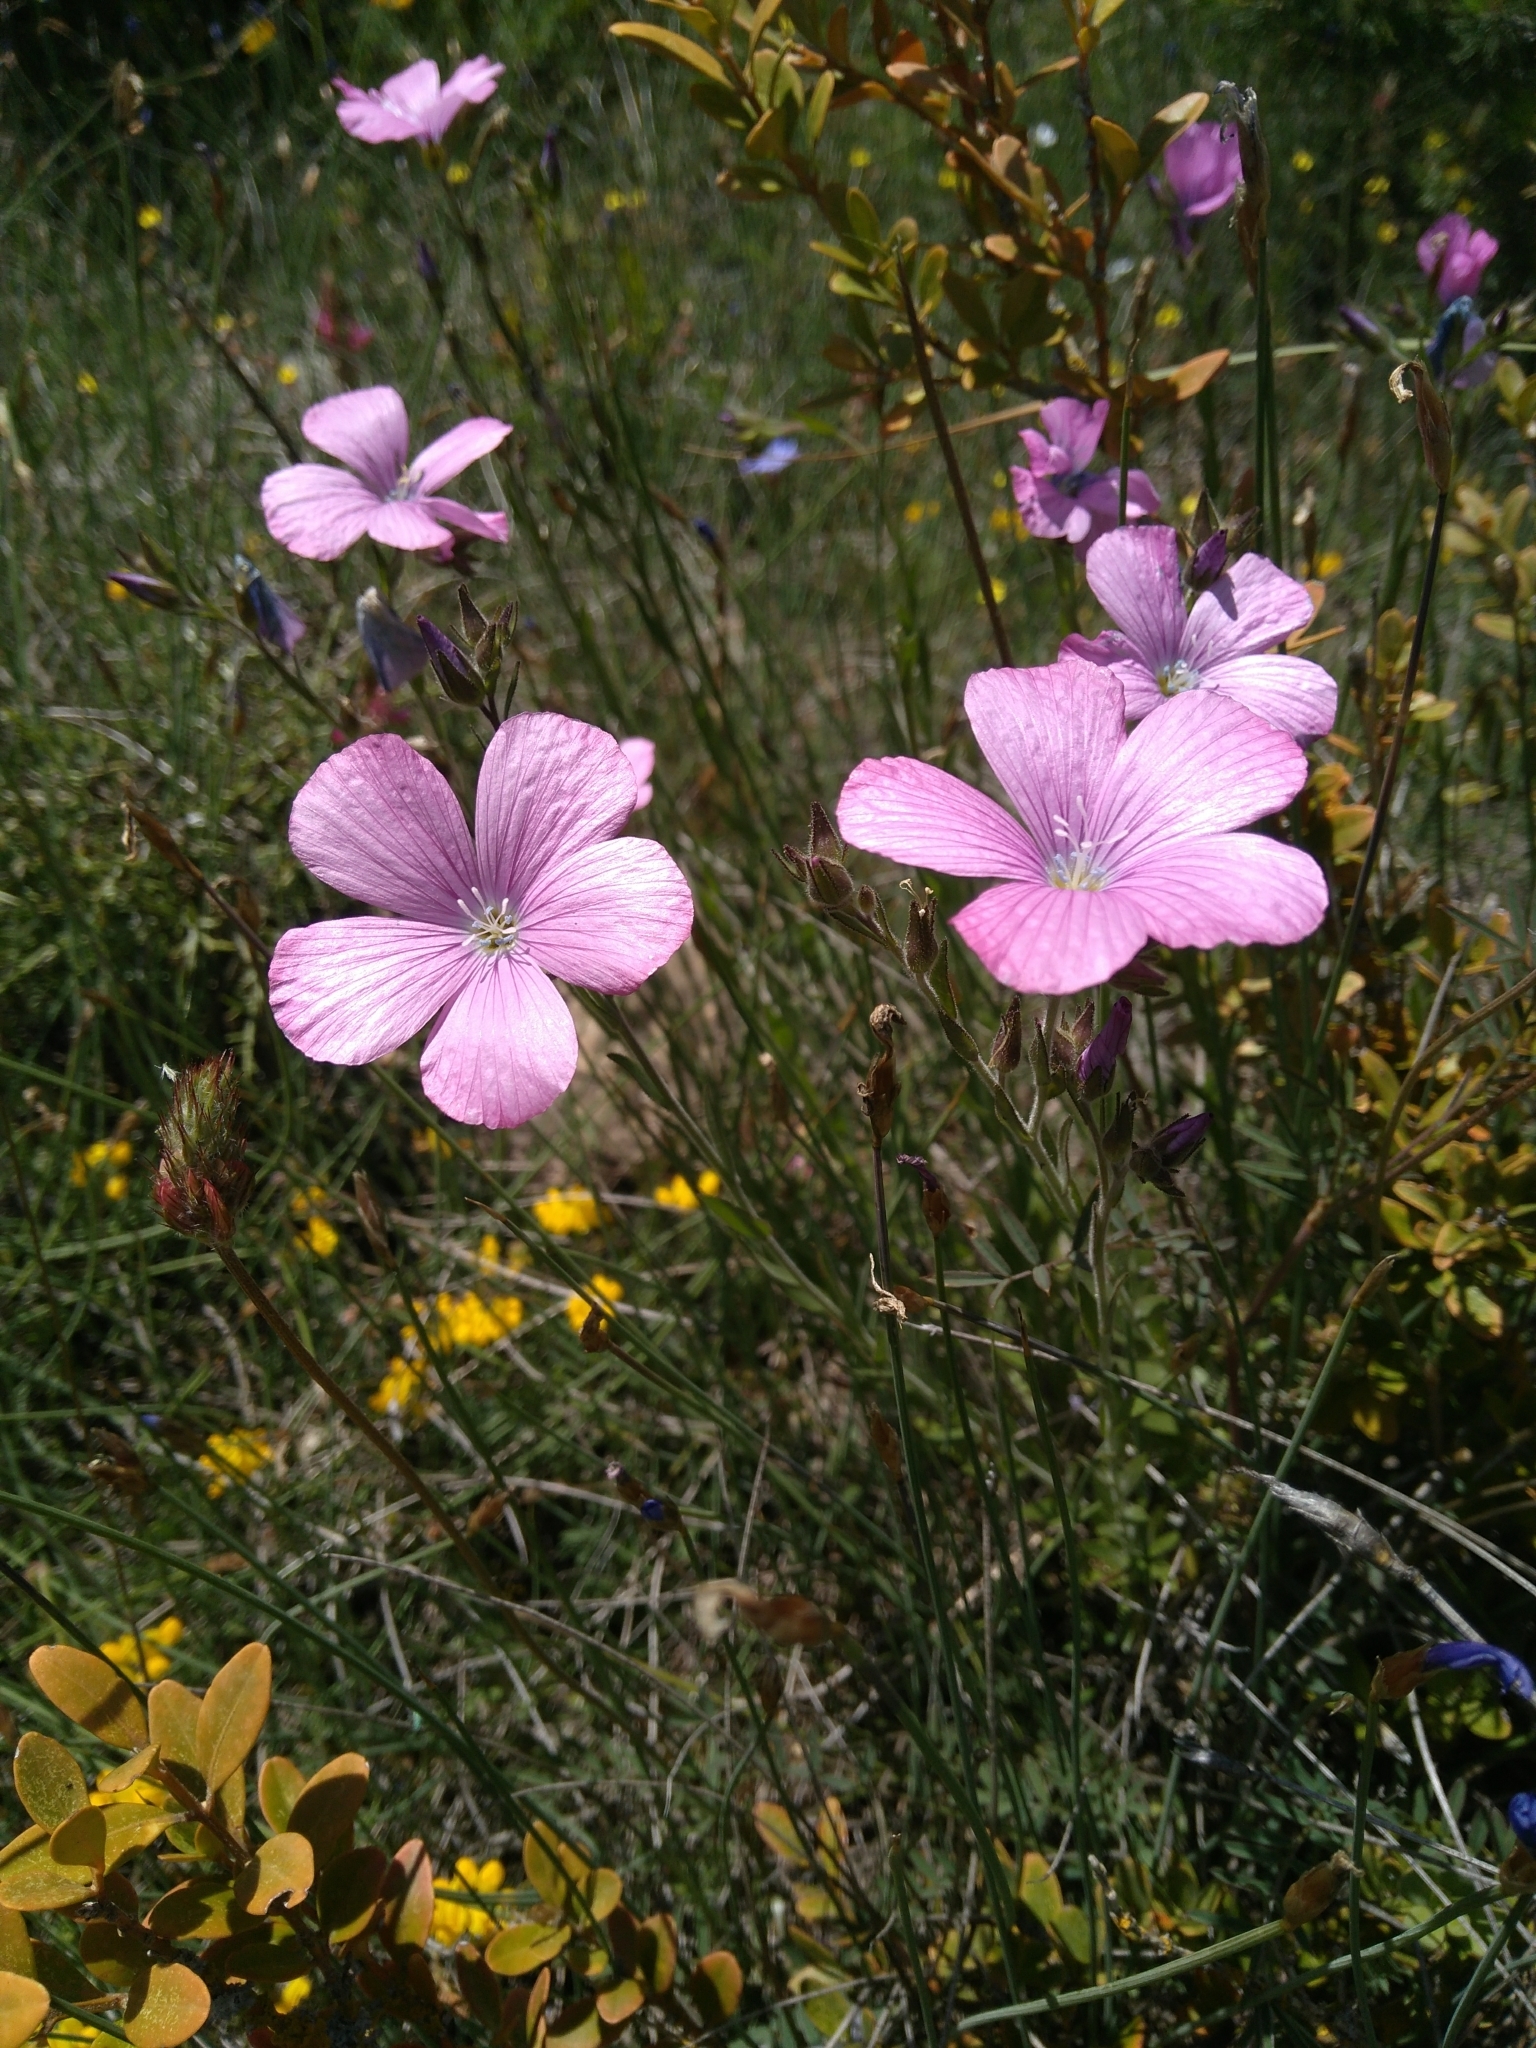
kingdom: Plantae
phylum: Tracheophyta
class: Magnoliopsida
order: Malpighiales
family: Linaceae
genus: Linum
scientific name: Linum viscosum
